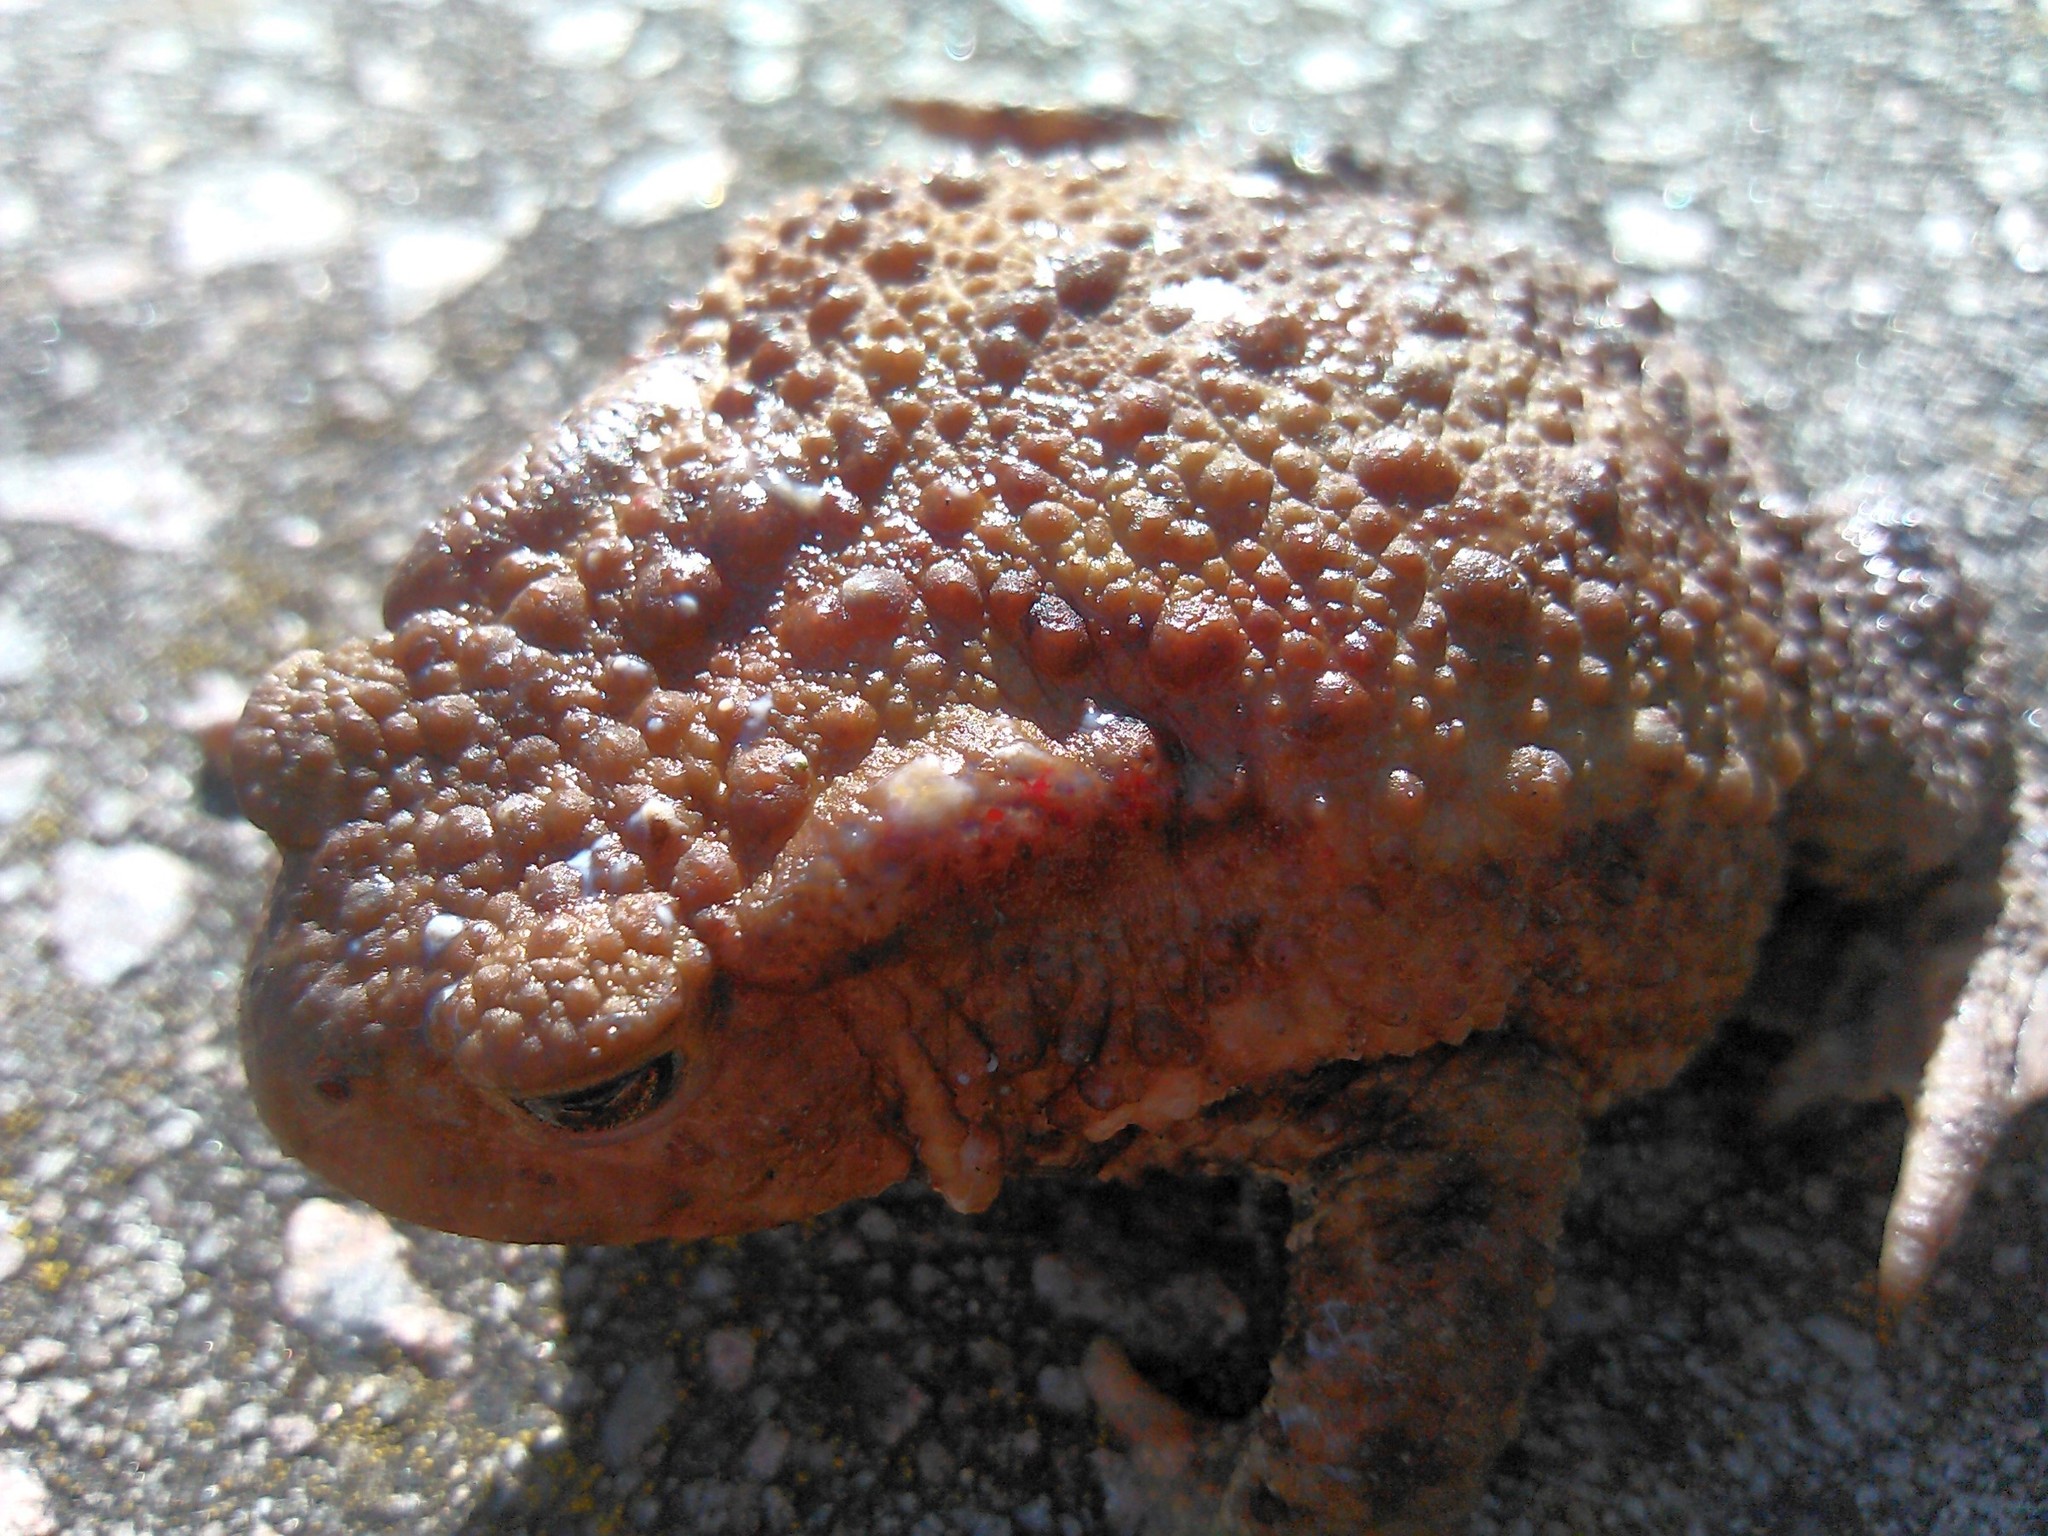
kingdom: Animalia
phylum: Chordata
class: Amphibia
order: Anura
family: Bufonidae
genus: Bufo
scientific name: Bufo bufo
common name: Common toad
